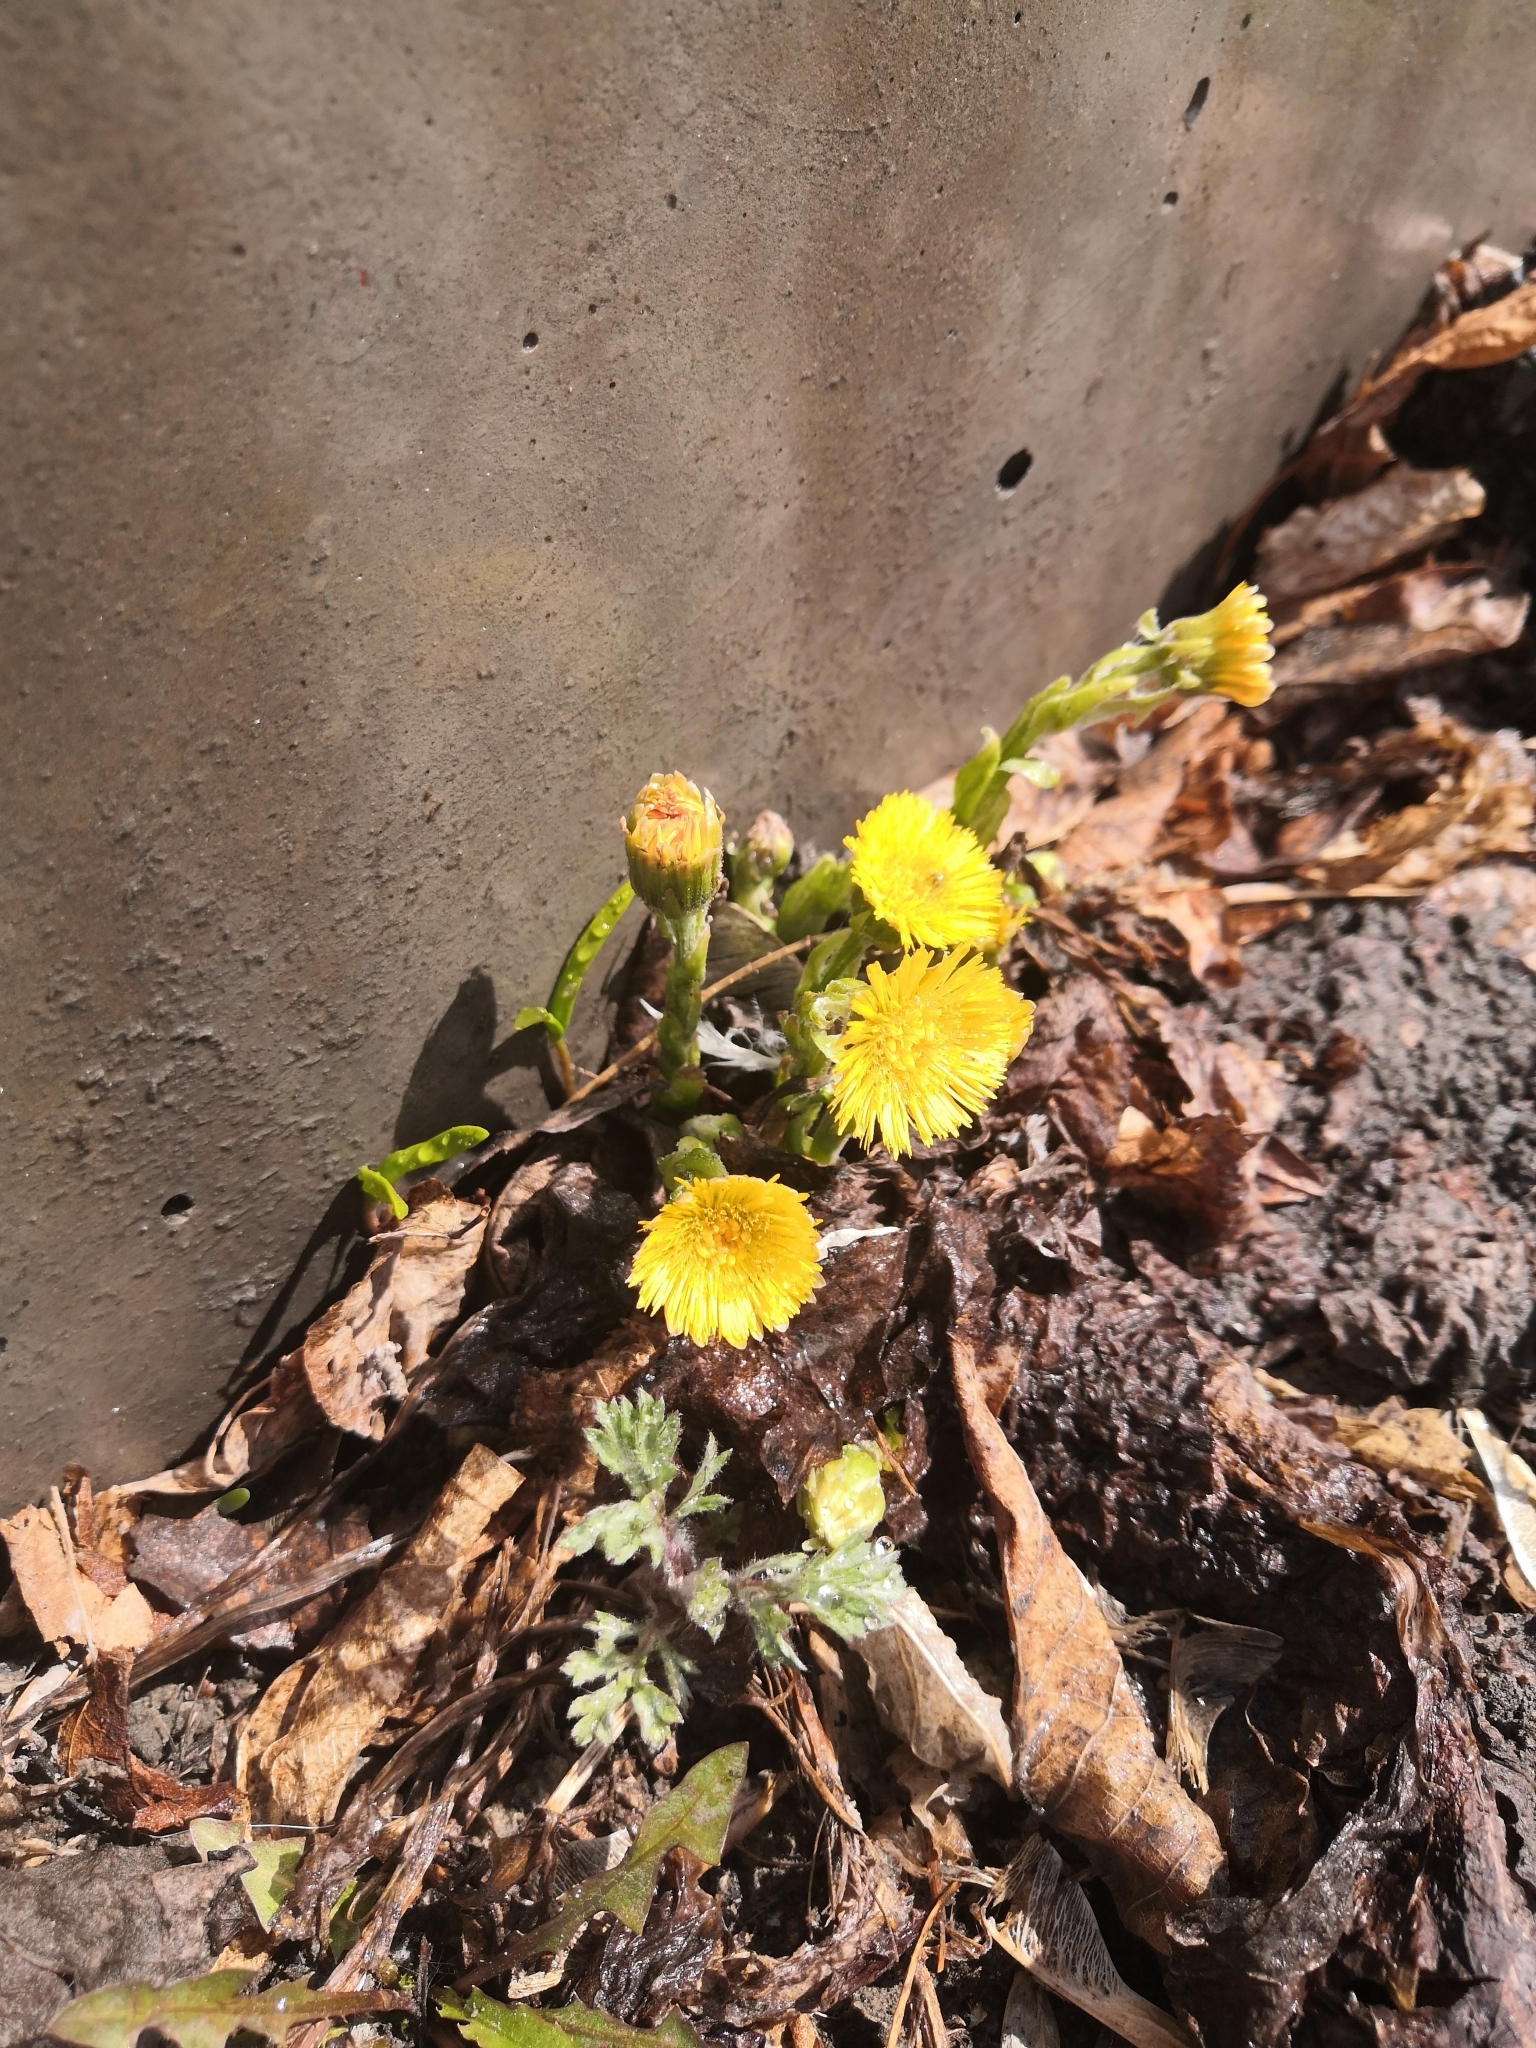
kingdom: Plantae
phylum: Tracheophyta
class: Magnoliopsida
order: Asterales
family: Asteraceae
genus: Tussilago
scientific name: Tussilago farfara
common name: Coltsfoot
